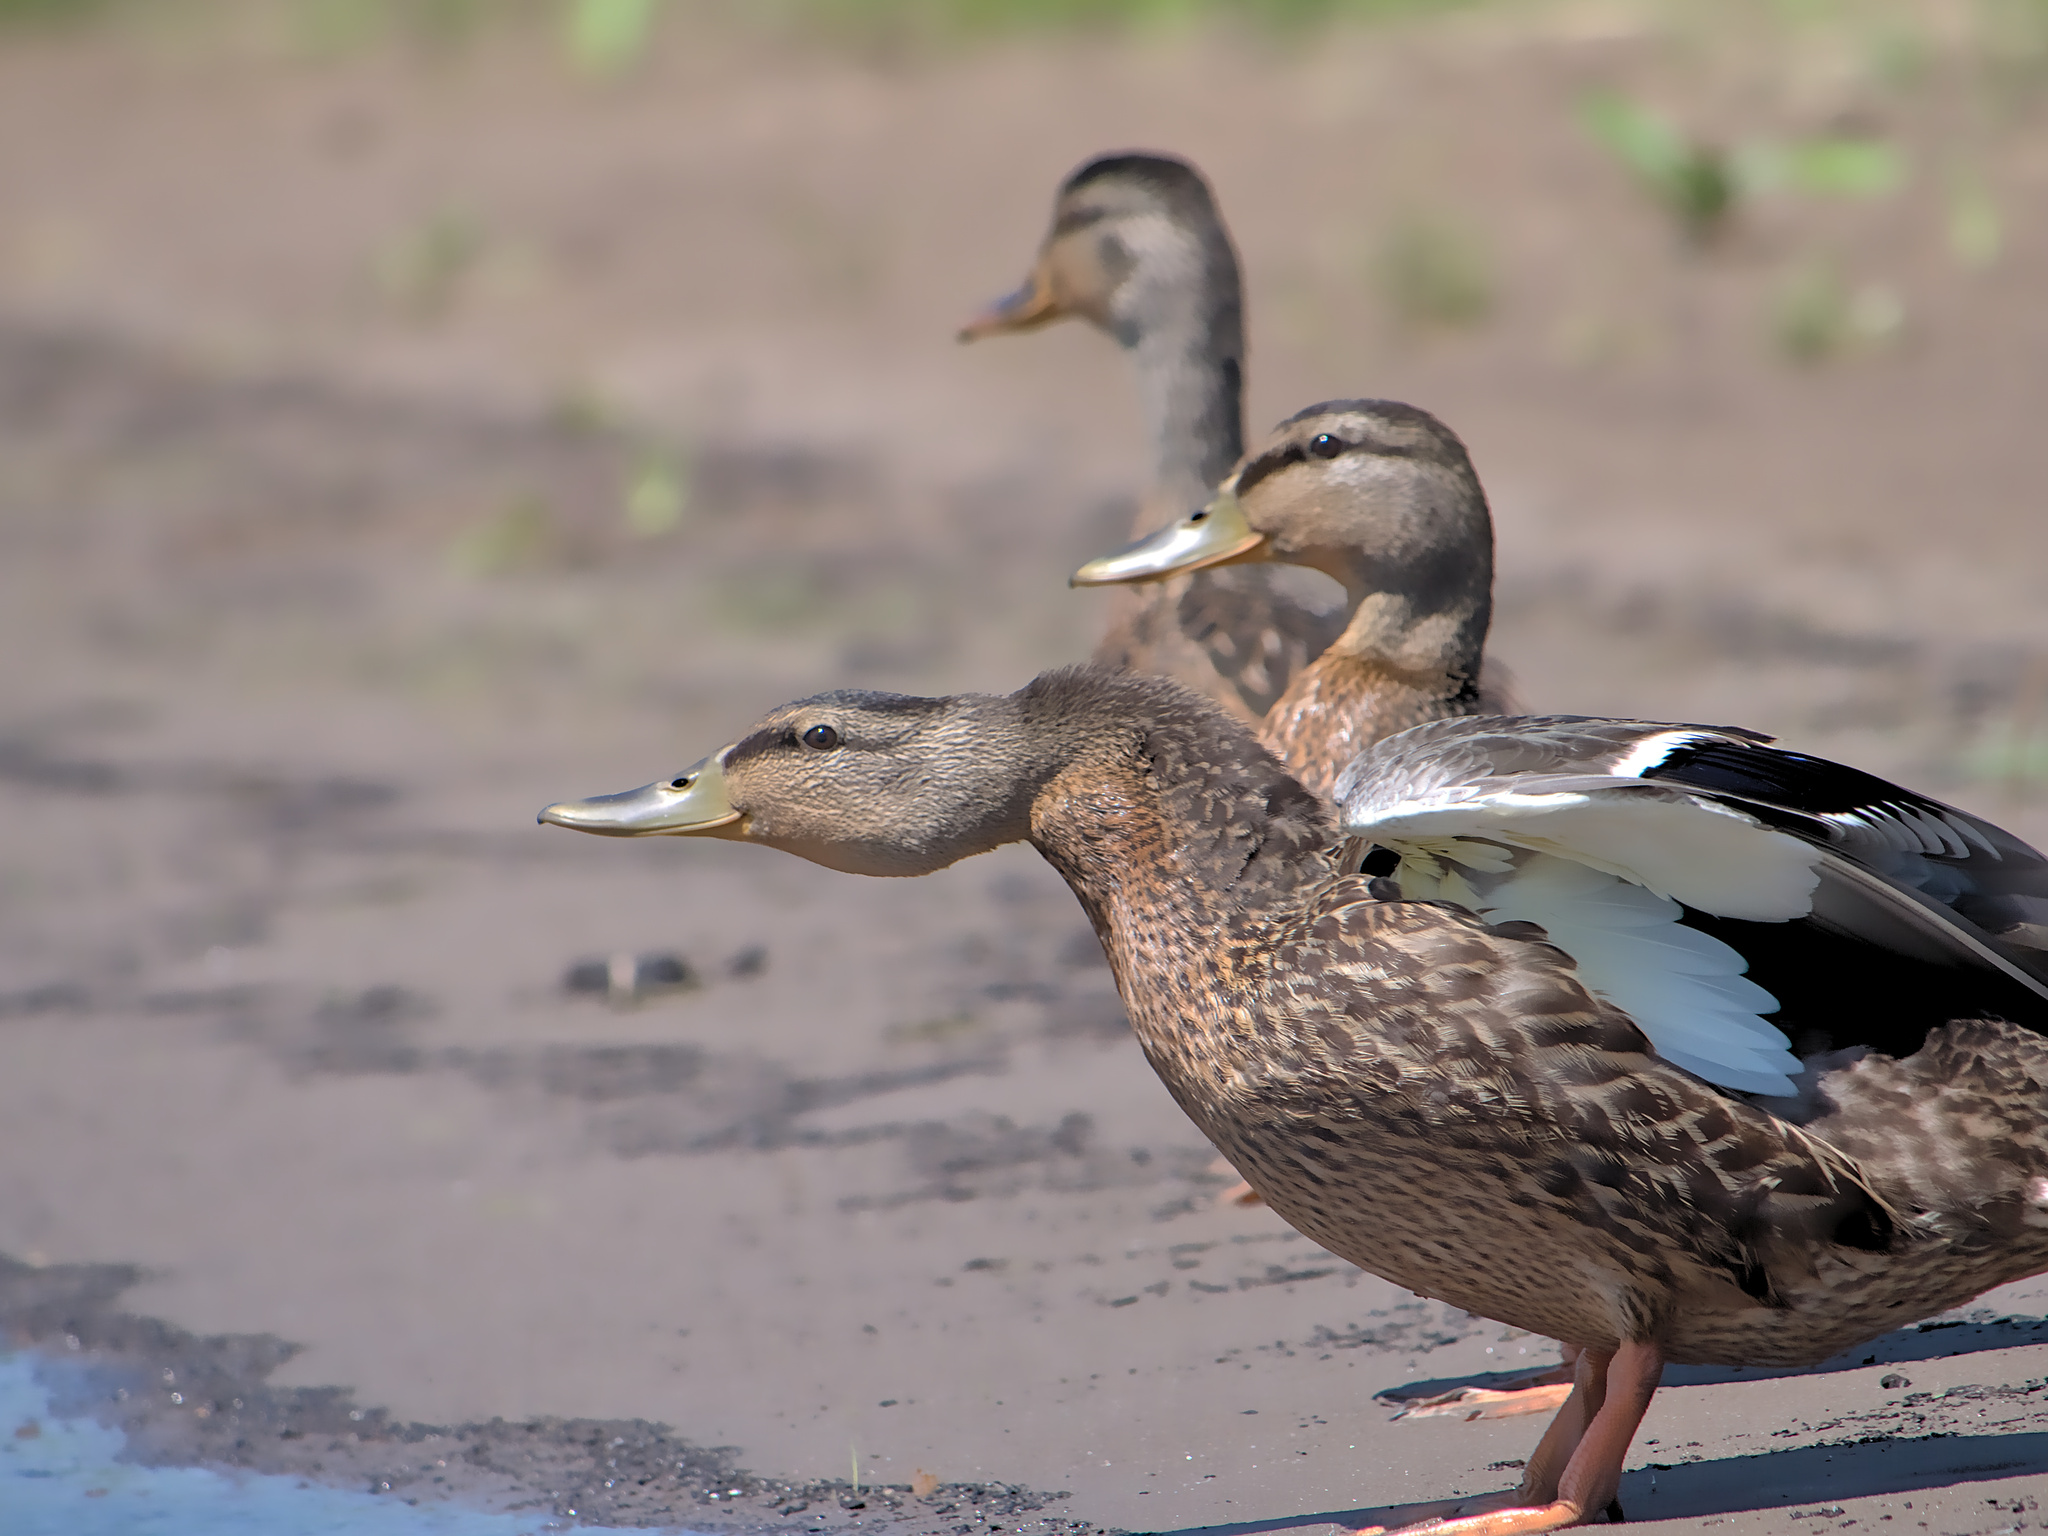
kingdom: Animalia
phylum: Chordata
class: Aves
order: Anseriformes
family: Anatidae
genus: Anas
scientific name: Anas platyrhynchos
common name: Mallard
